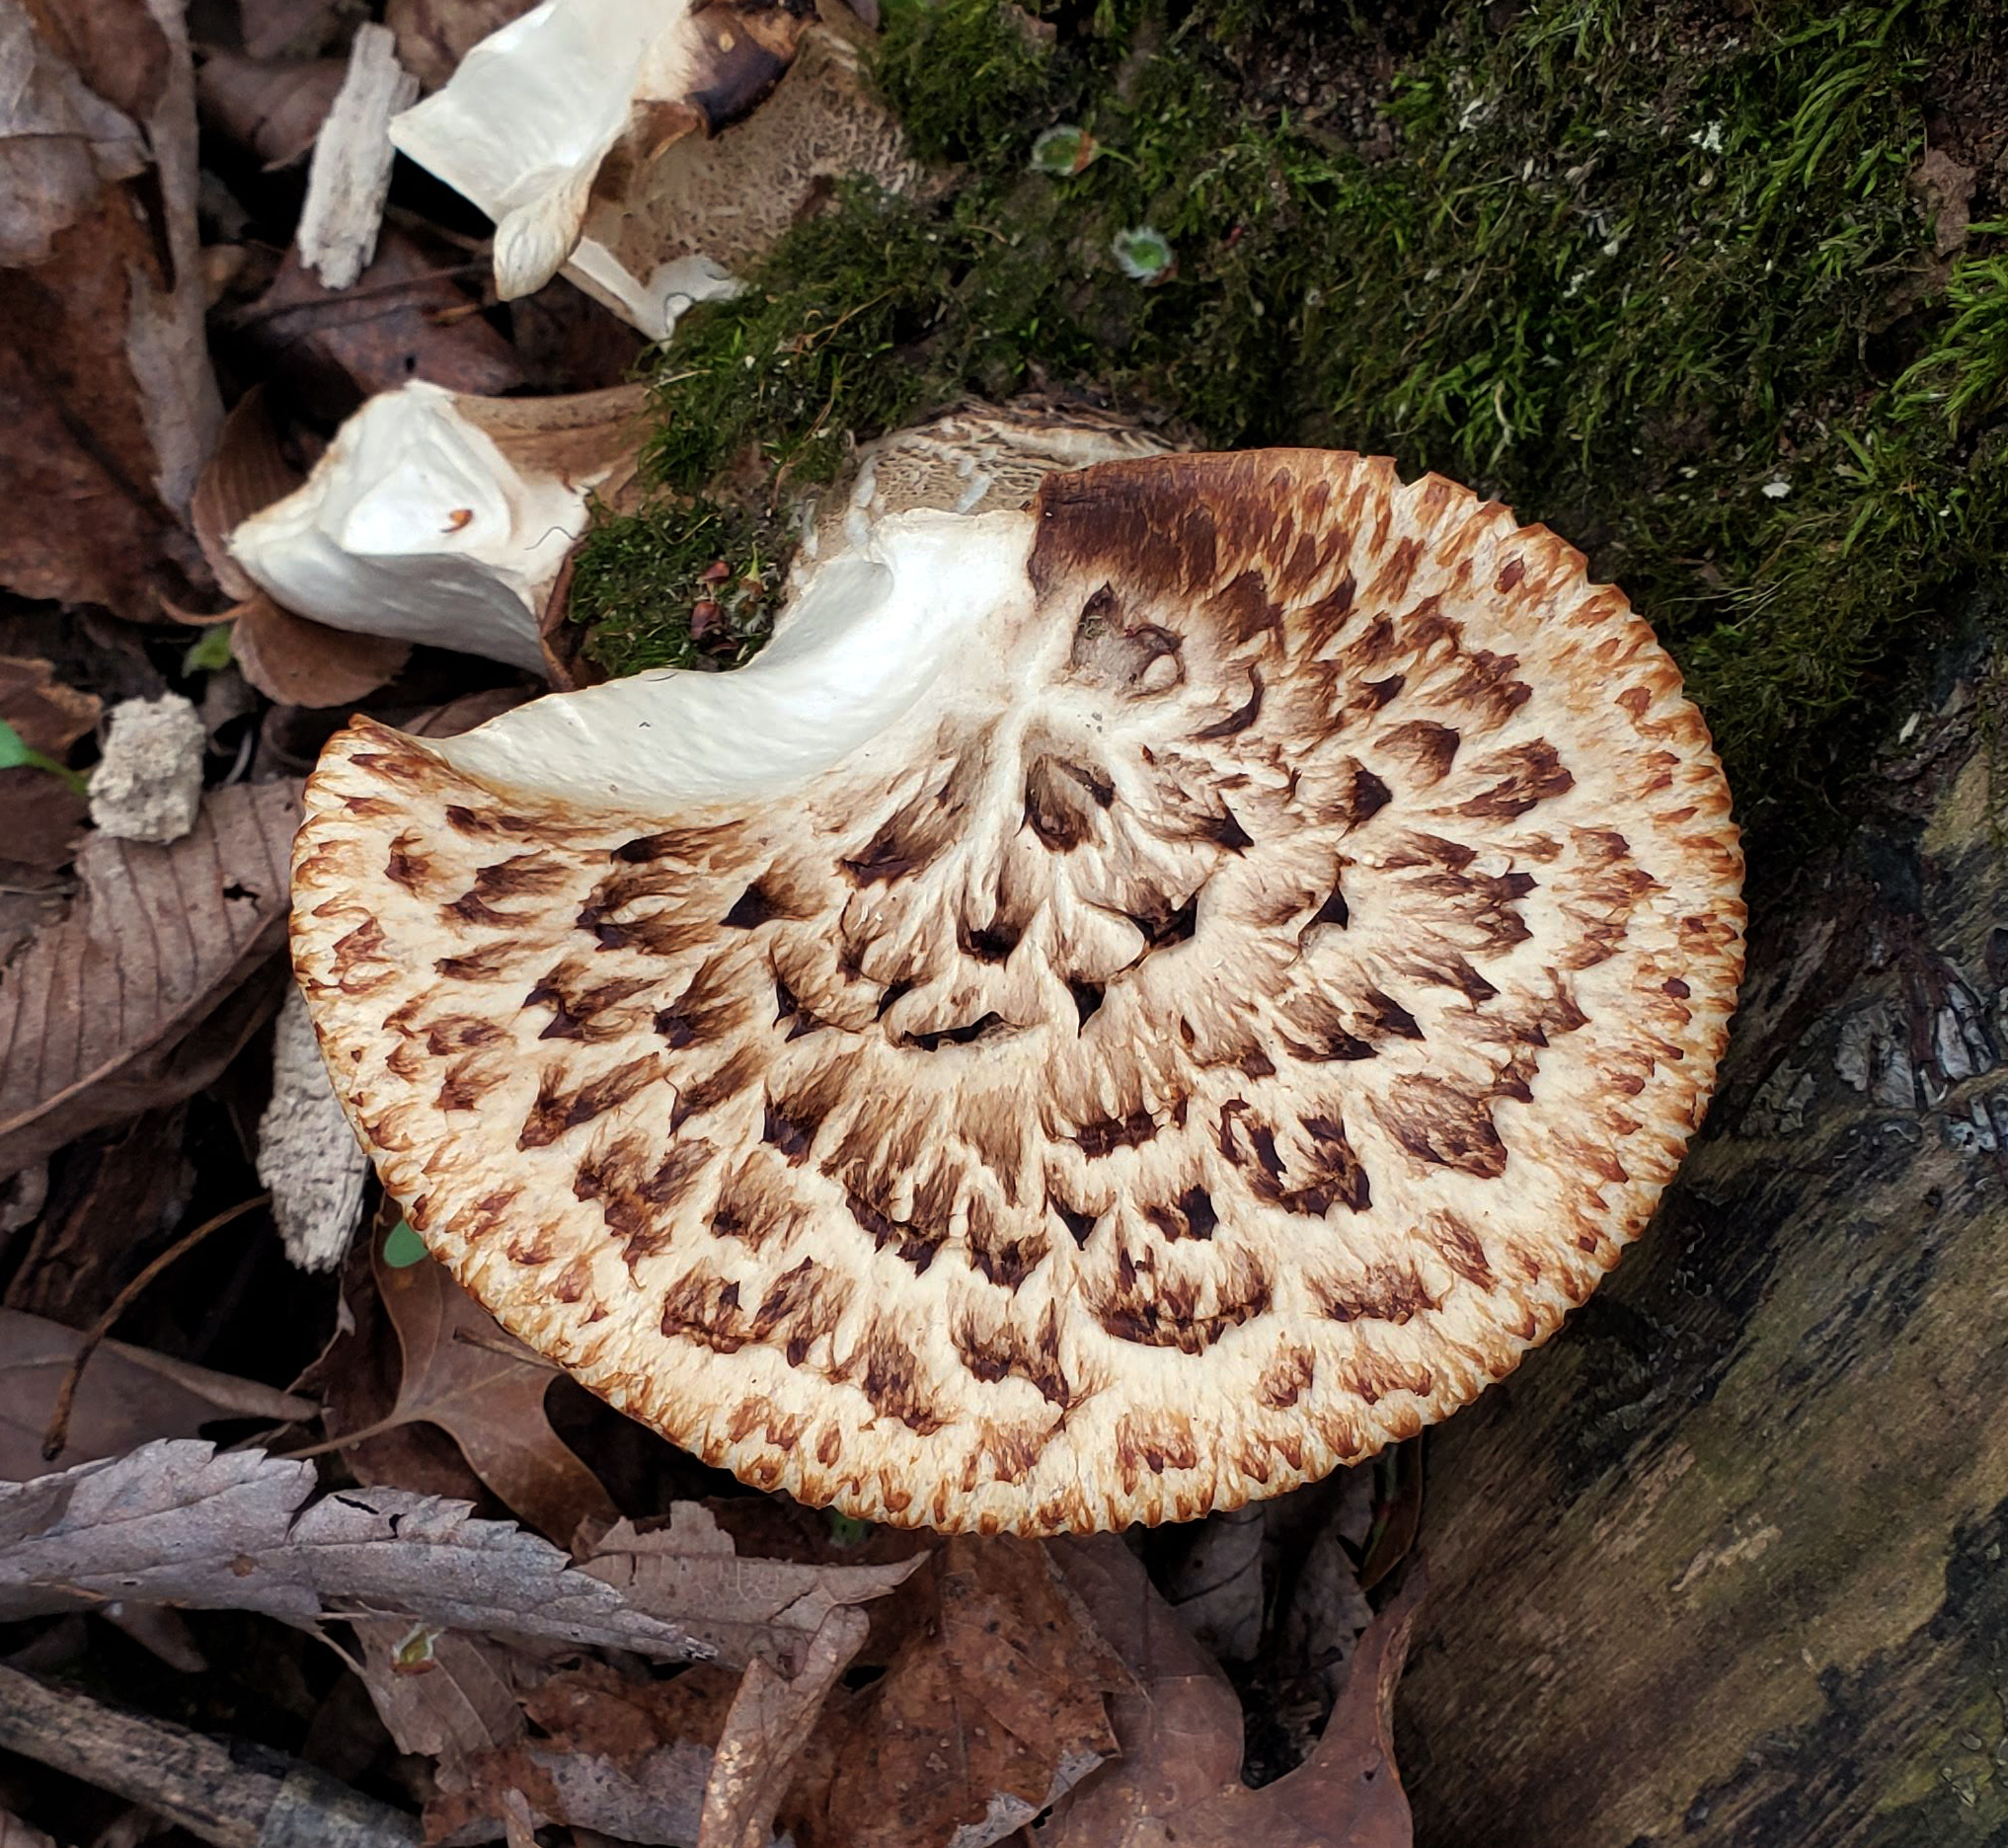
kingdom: Fungi
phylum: Basidiomycota
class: Agaricomycetes
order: Polyporales
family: Polyporaceae
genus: Cerioporus
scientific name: Cerioporus squamosus
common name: Dryad's saddle
